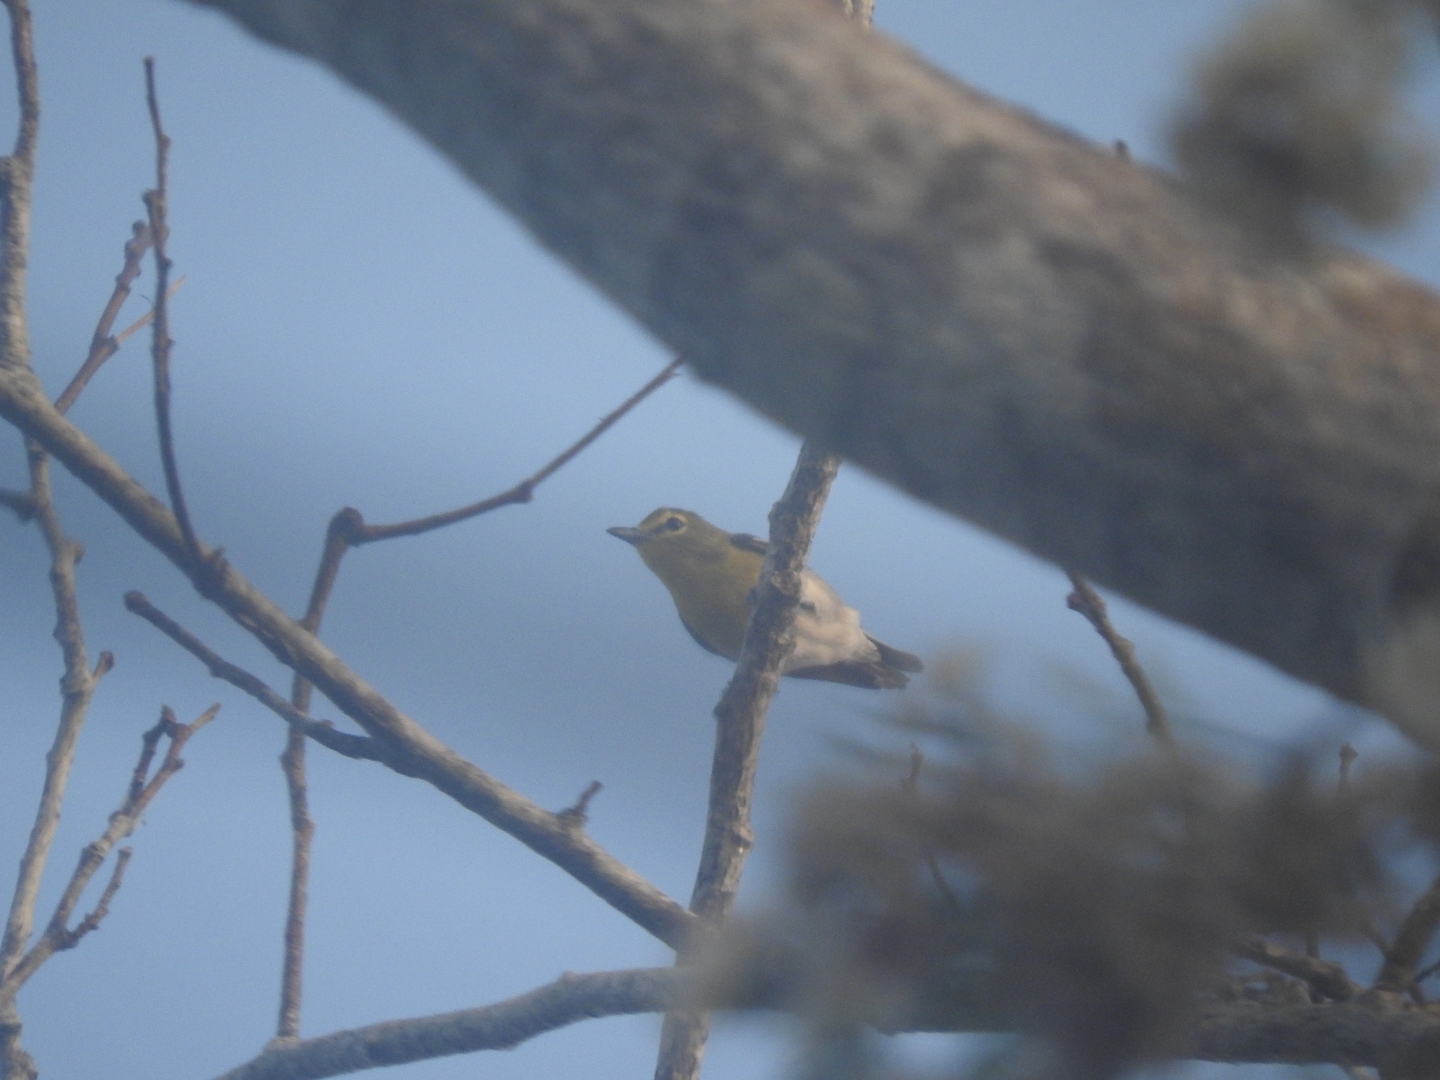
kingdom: Animalia
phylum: Chordata
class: Aves
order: Passeriformes
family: Vireonidae
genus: Vireo
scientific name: Vireo flavifrons
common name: Yellow-throated vireo
